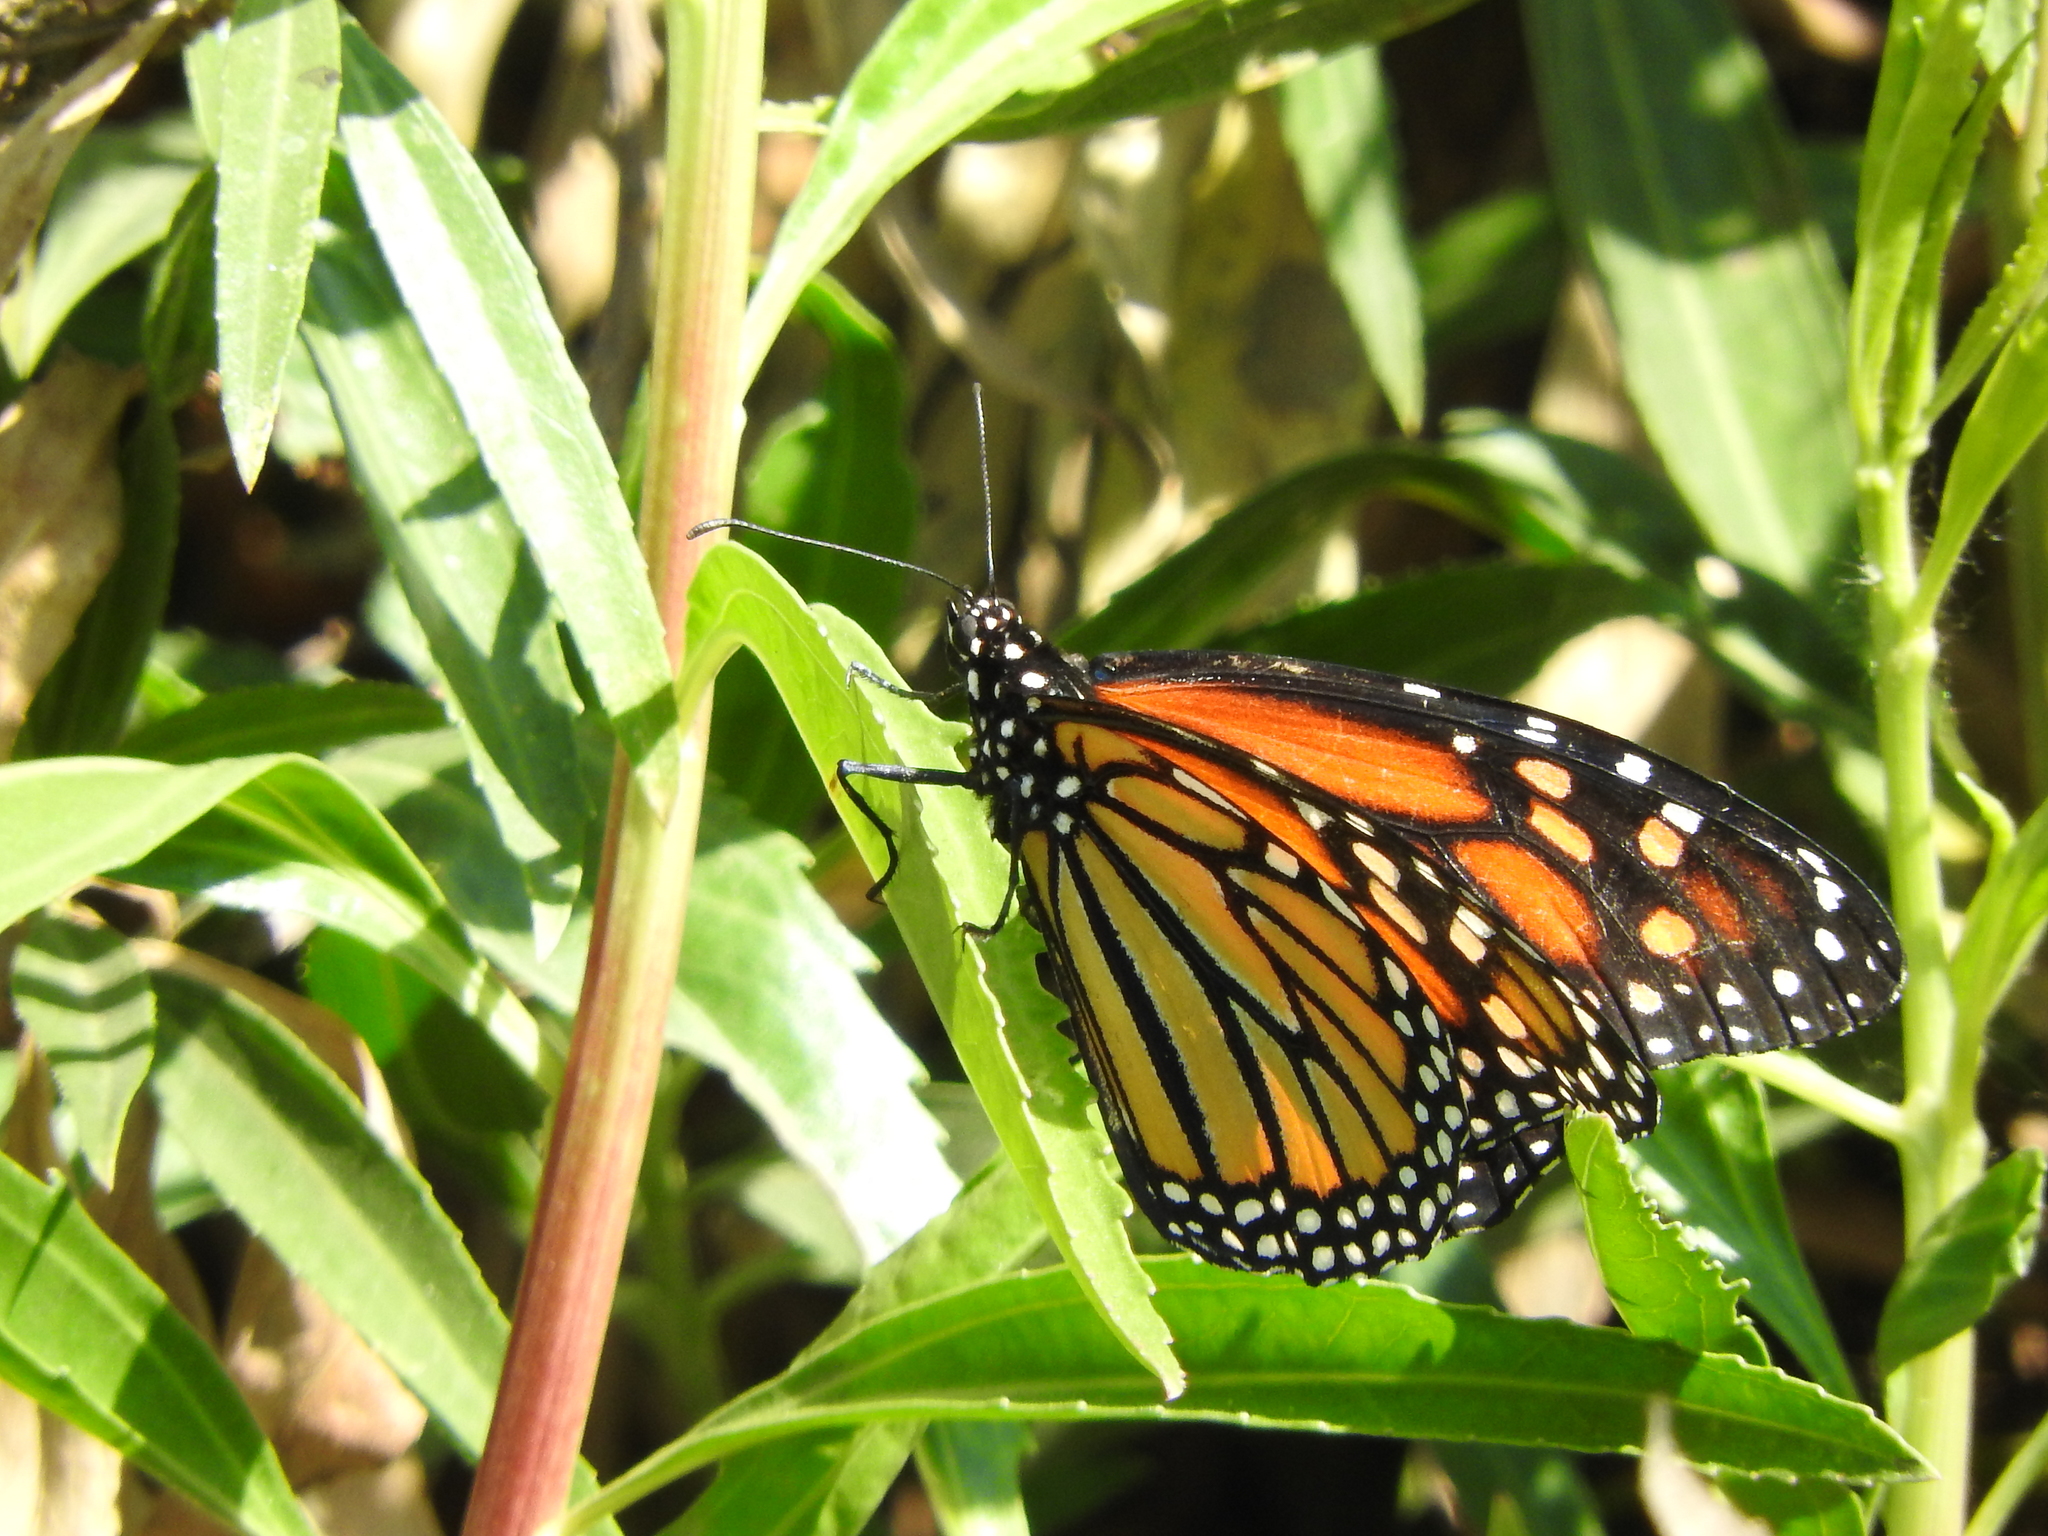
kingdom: Animalia
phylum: Arthropoda
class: Insecta
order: Lepidoptera
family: Nymphalidae
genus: Danaus
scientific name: Danaus plexippus
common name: Monarch
